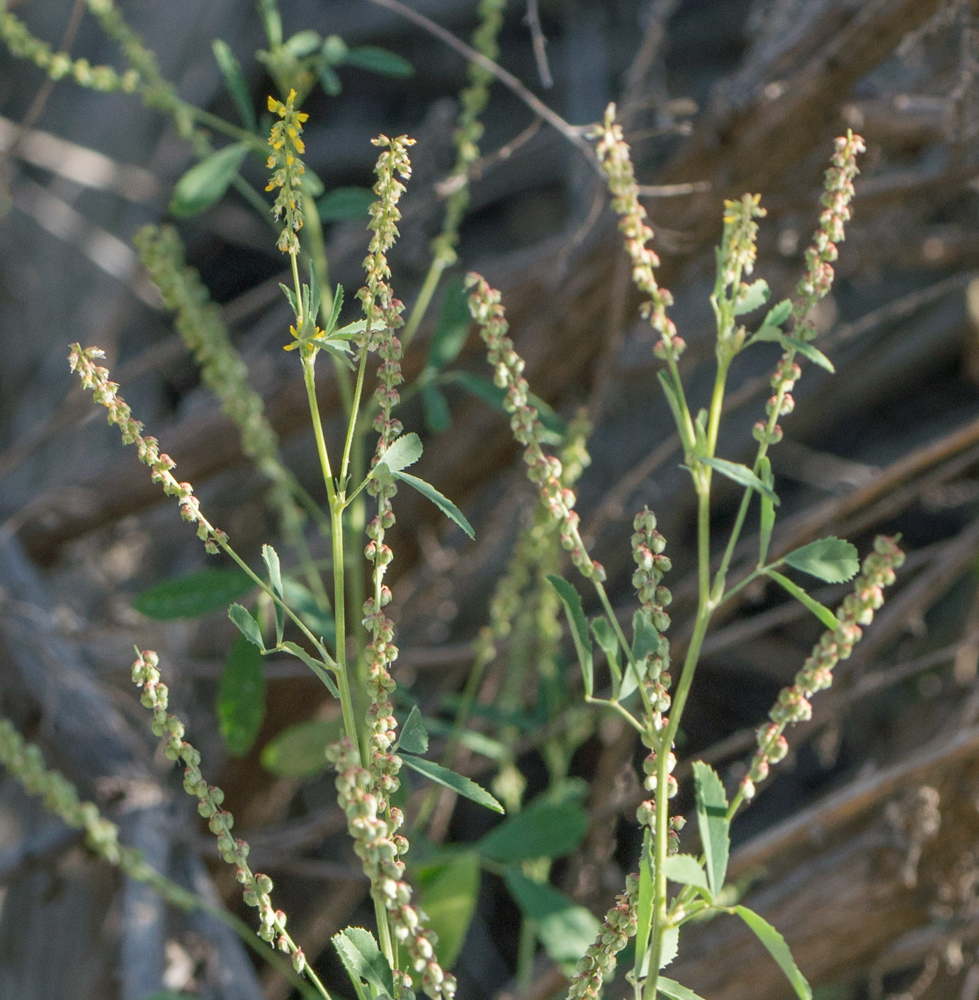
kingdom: Plantae
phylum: Tracheophyta
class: Magnoliopsida
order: Fabales
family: Fabaceae
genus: Melilotus
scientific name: Melilotus indicus
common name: Small melilot
